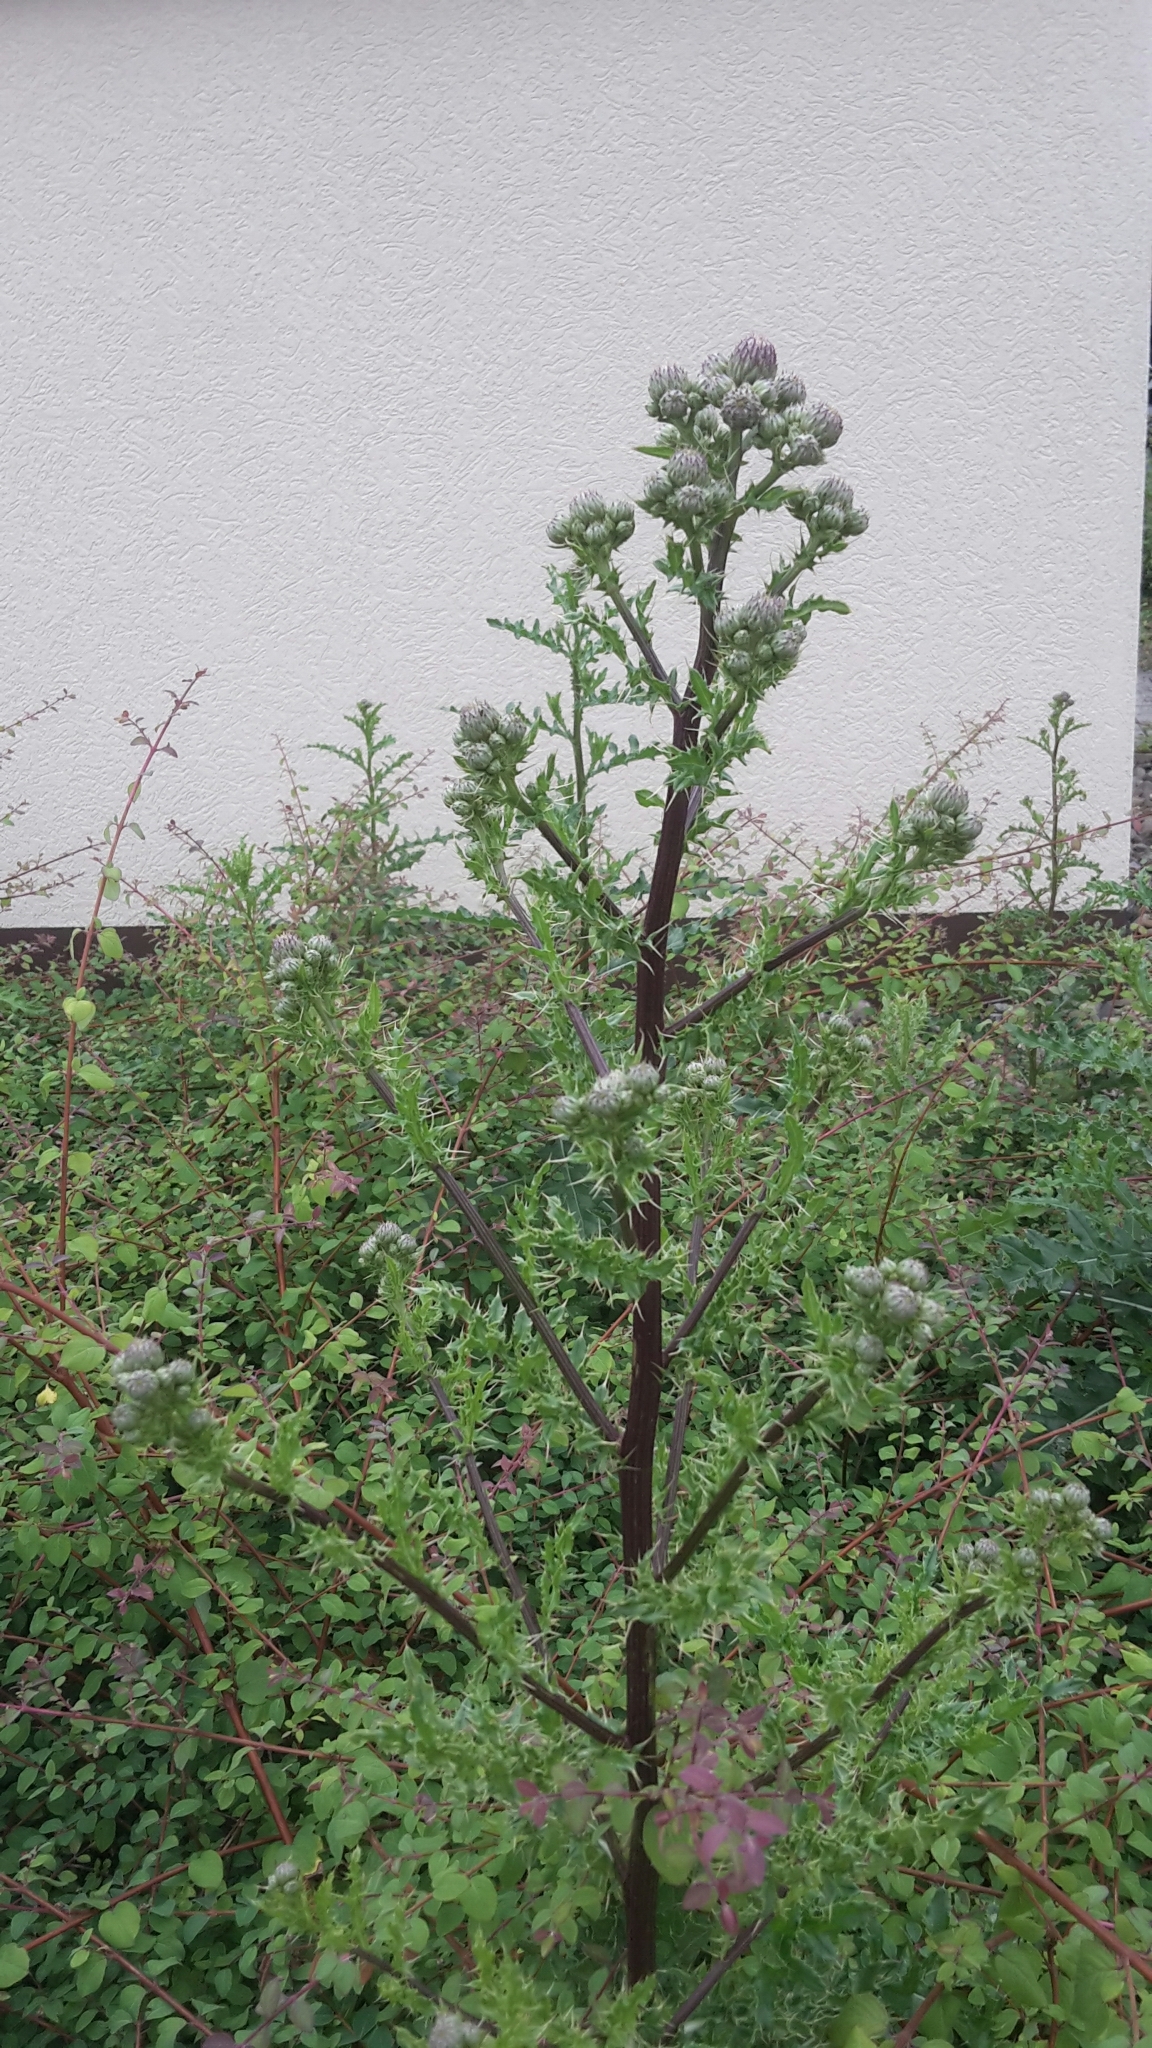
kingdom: Plantae
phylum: Tracheophyta
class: Magnoliopsida
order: Asterales
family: Asteraceae
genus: Cirsium
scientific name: Cirsium arvense
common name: Creeping thistle
